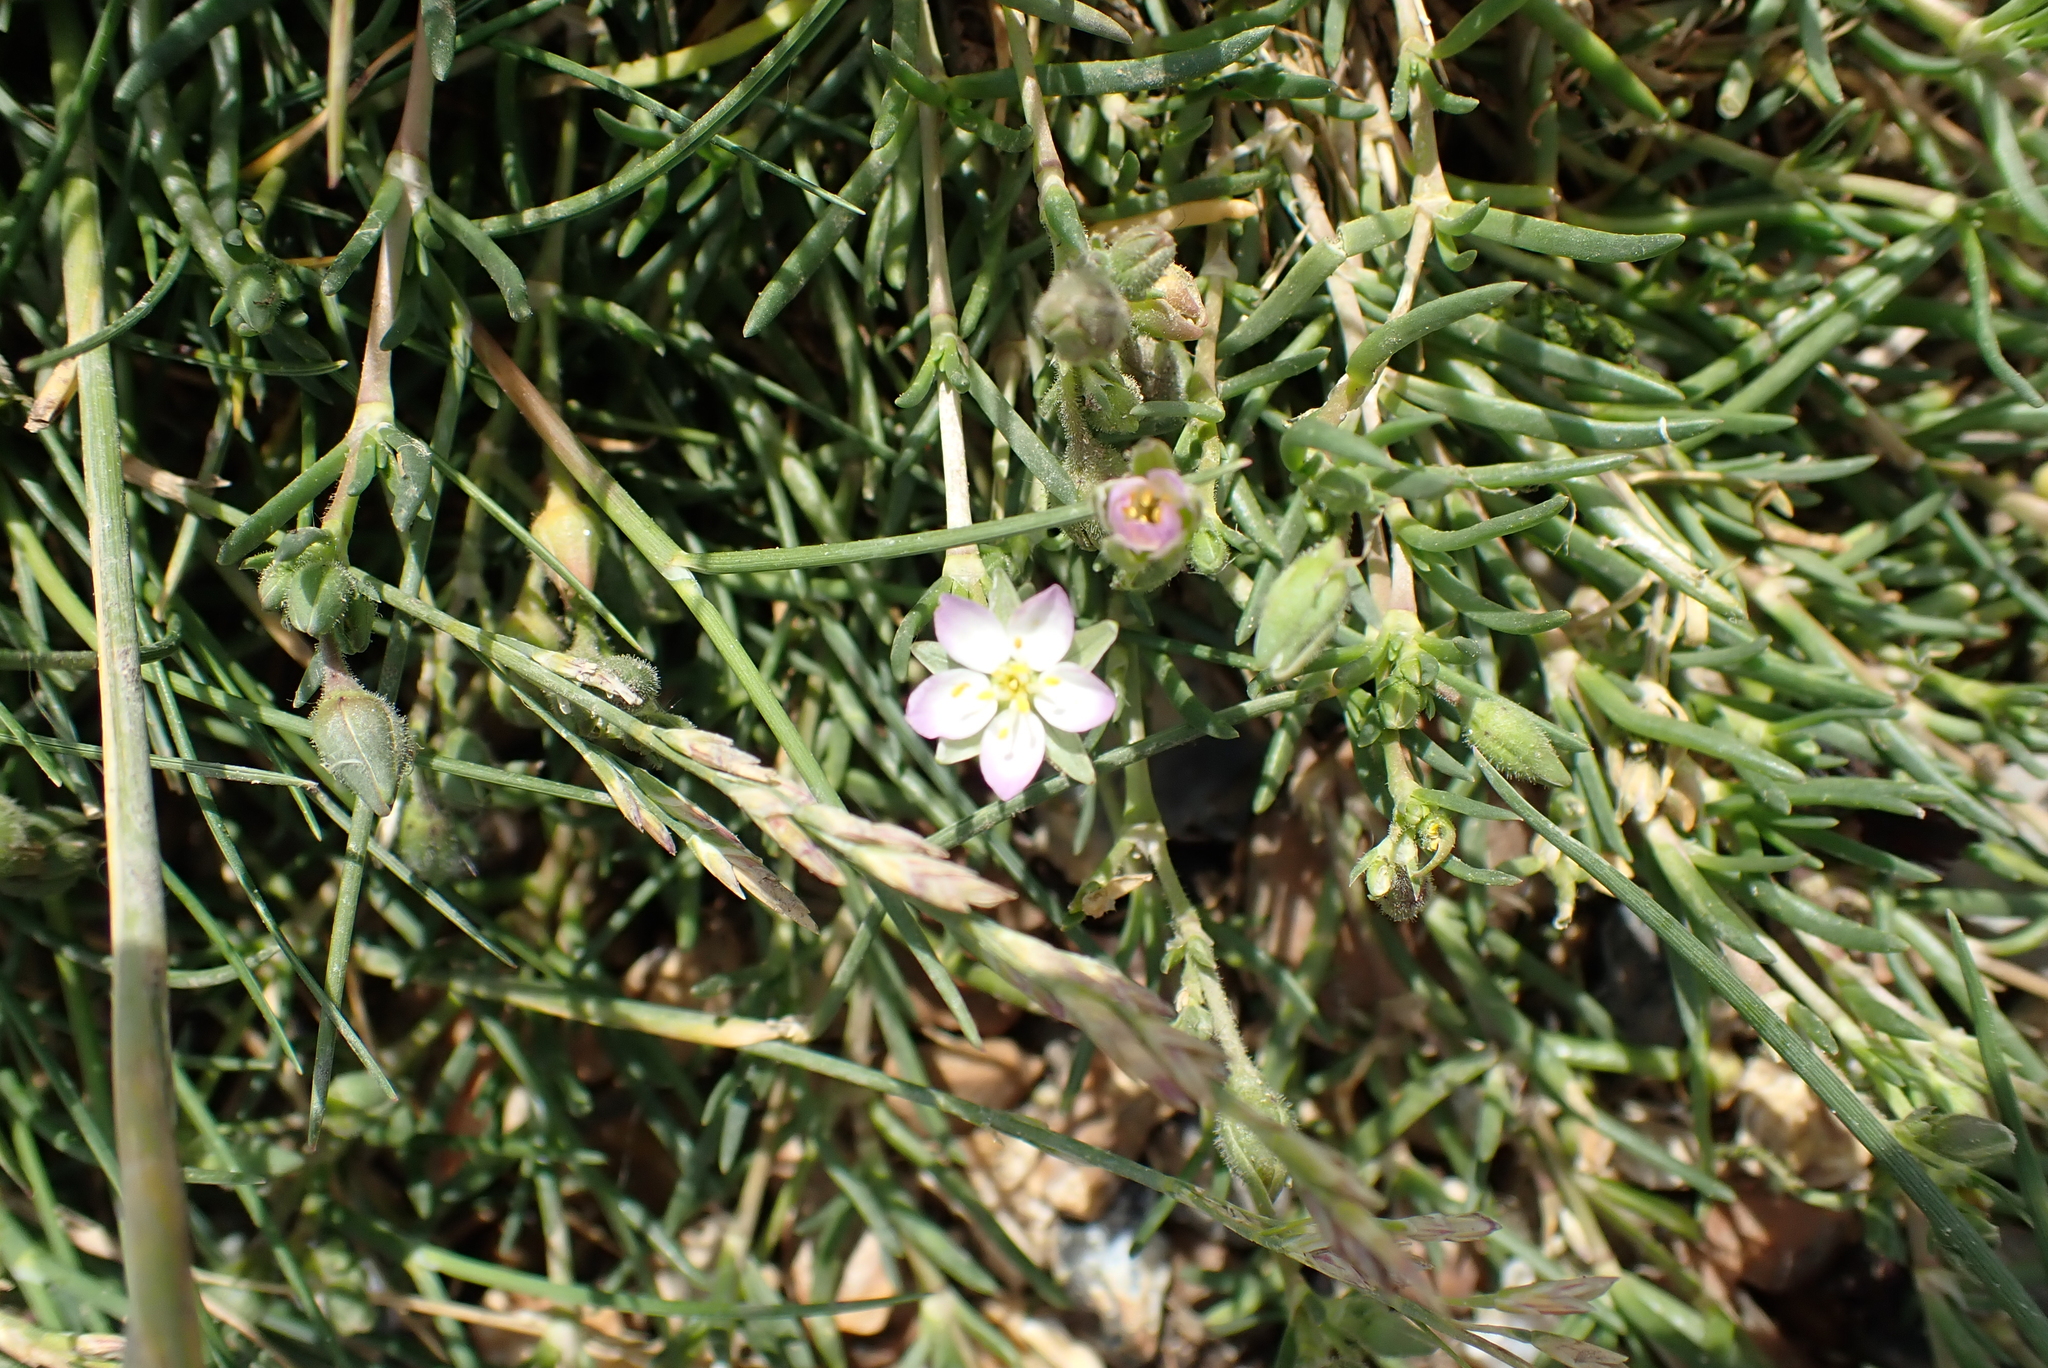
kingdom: Plantae
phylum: Tracheophyta
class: Magnoliopsida
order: Caryophyllales
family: Caryophyllaceae
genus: Spergularia
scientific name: Spergularia media
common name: Greater sea-spurrey
